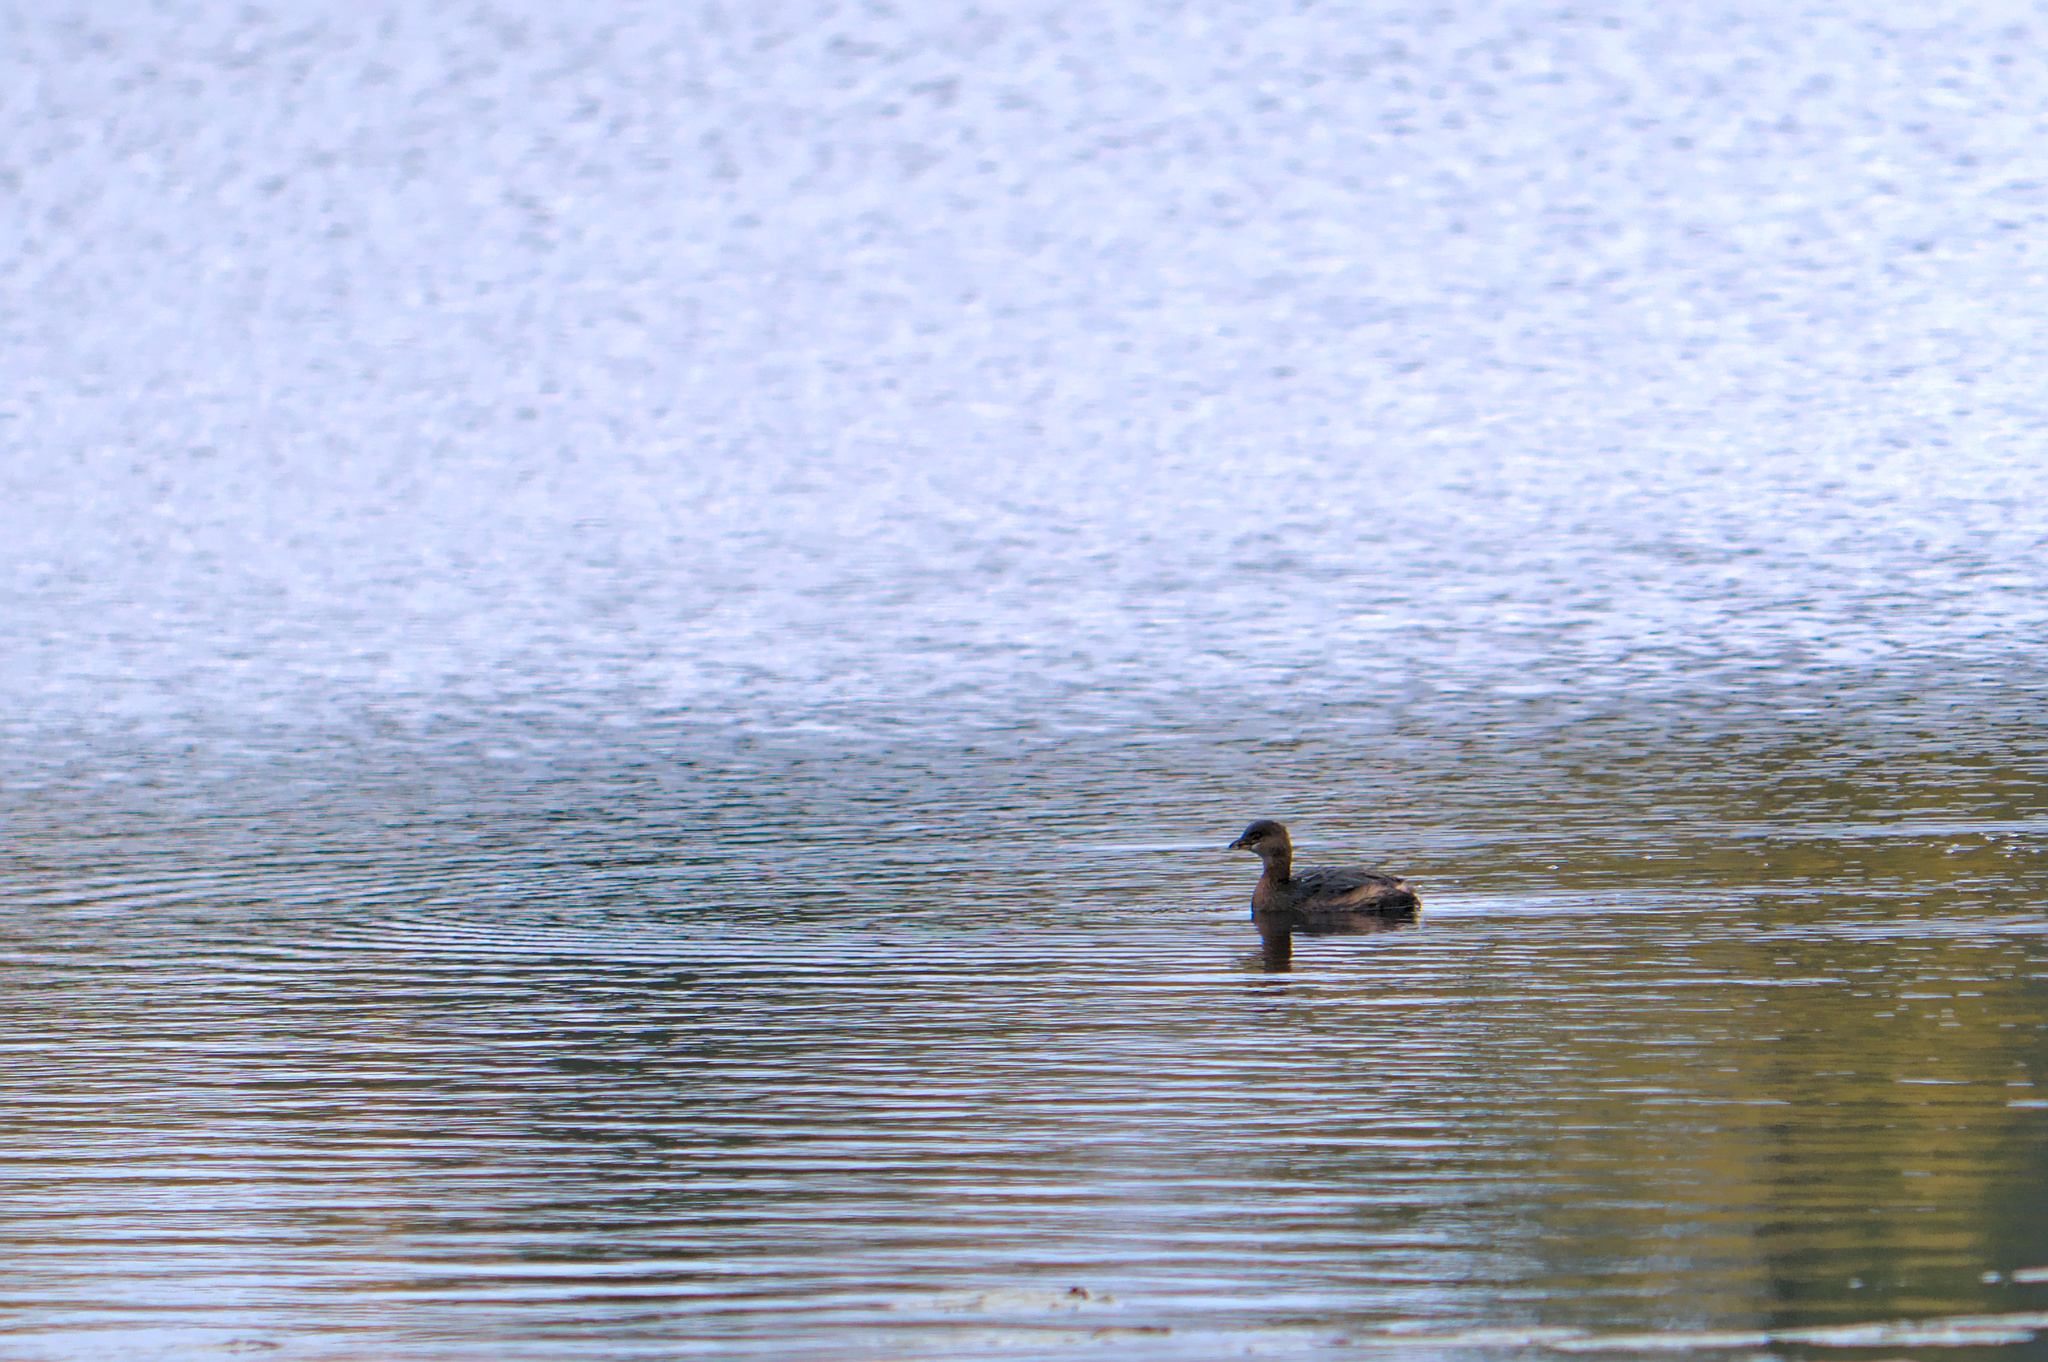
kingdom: Animalia
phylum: Chordata
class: Aves
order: Podicipediformes
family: Podicipedidae
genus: Podilymbus
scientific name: Podilymbus podiceps
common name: Pied-billed grebe
